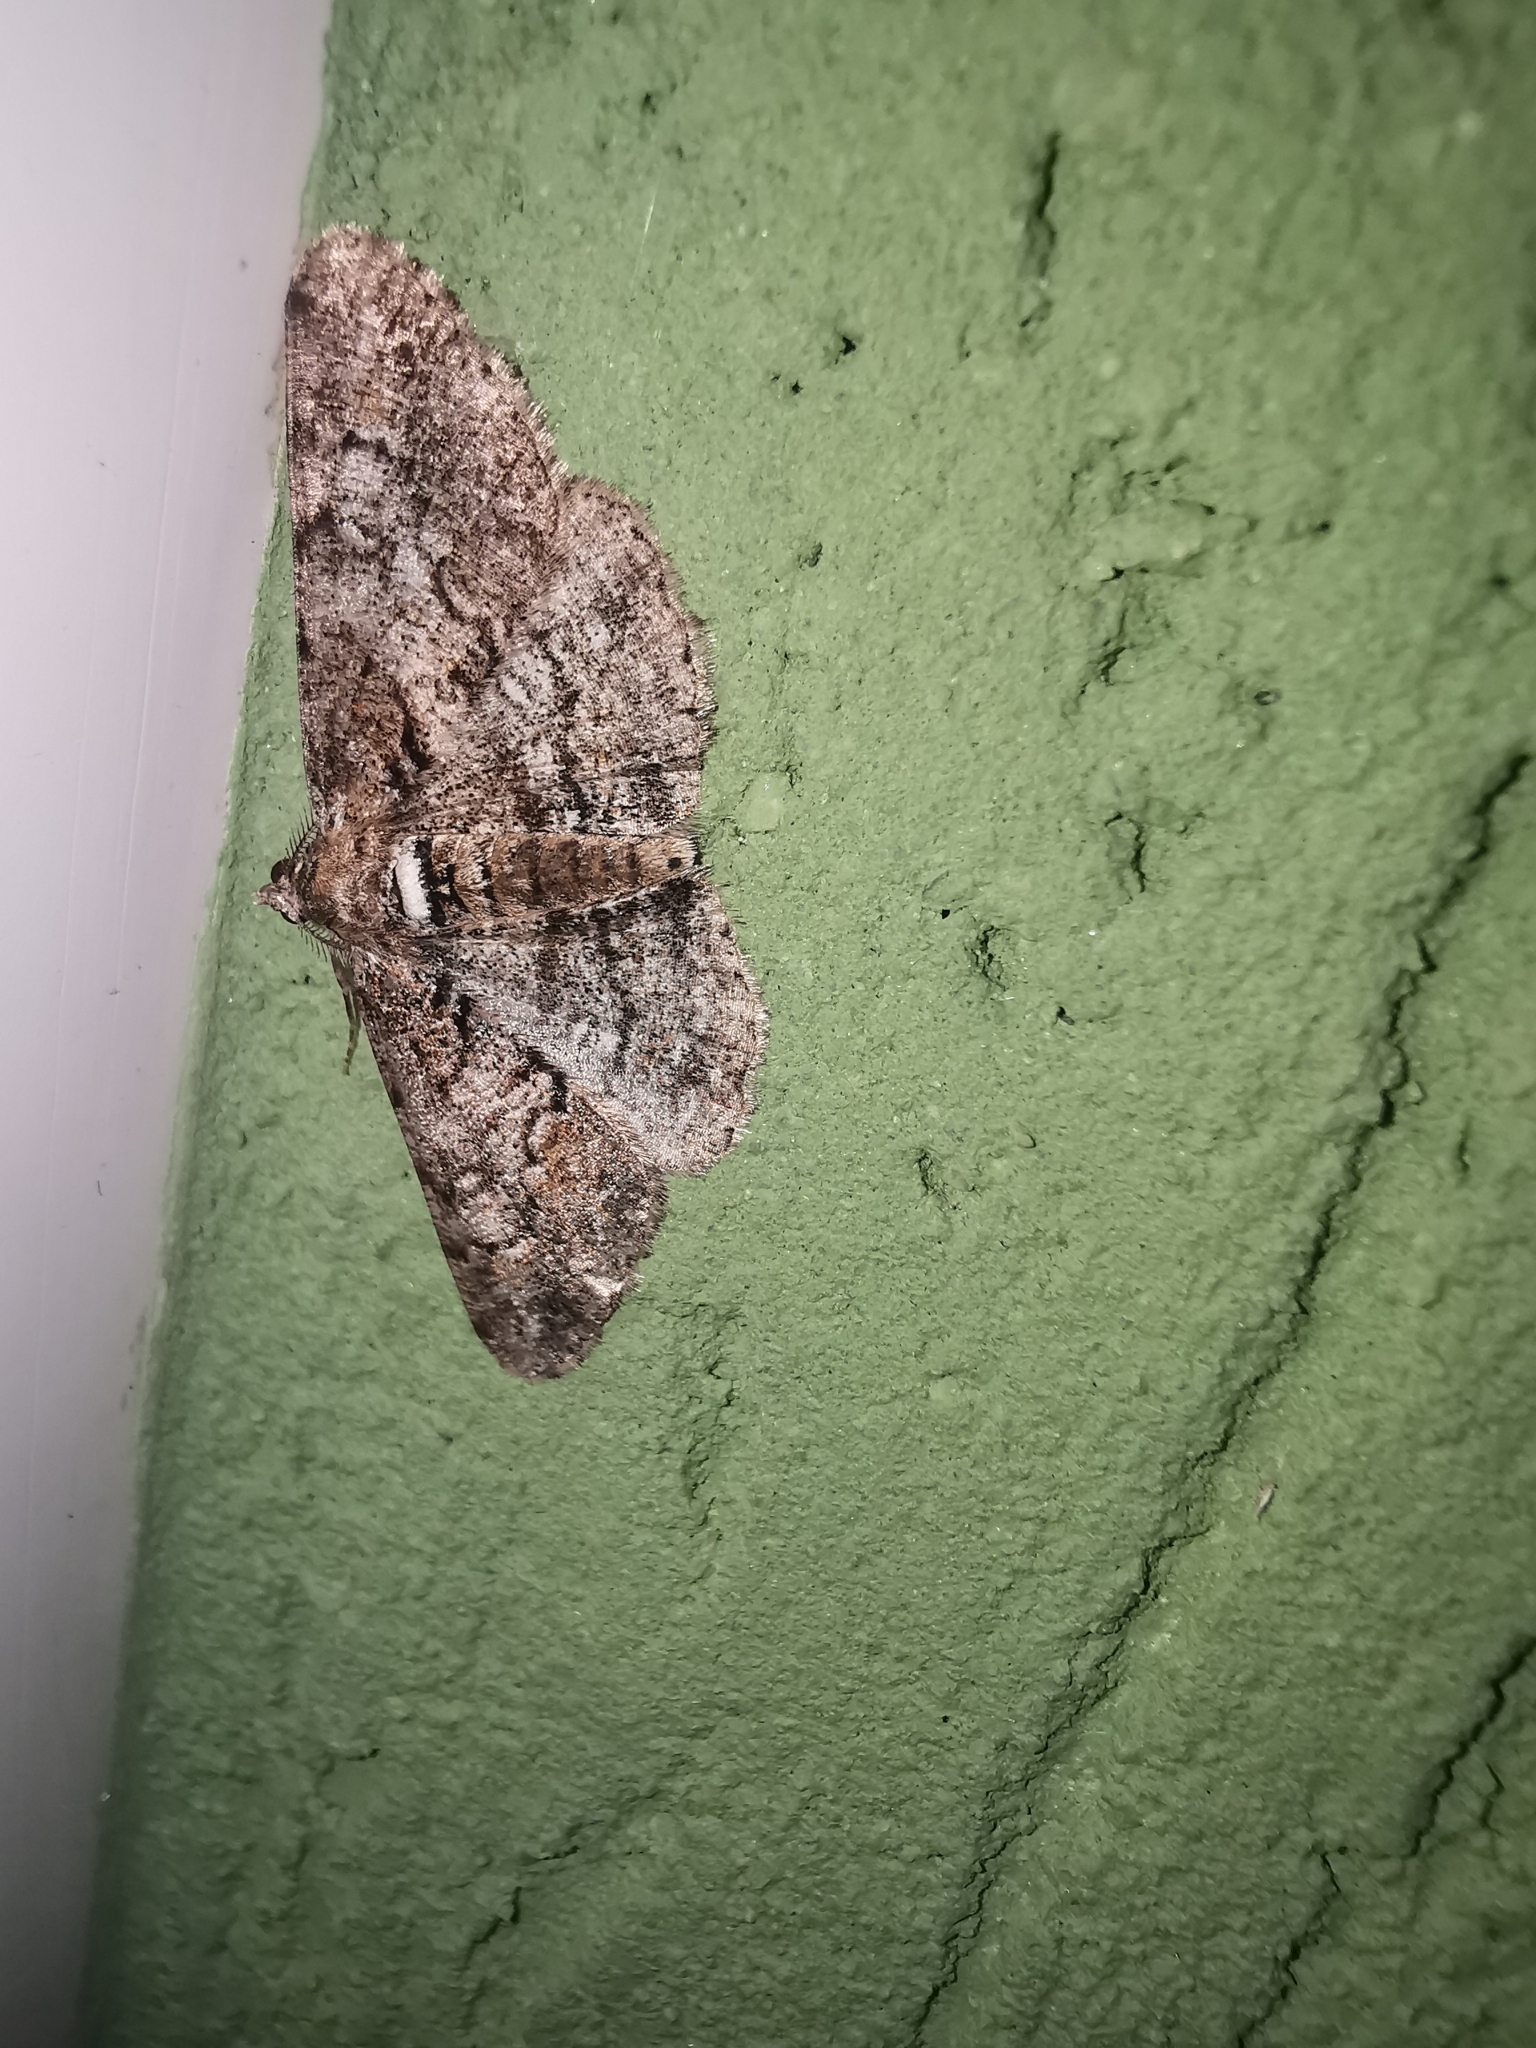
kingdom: Animalia
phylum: Arthropoda
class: Insecta
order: Lepidoptera
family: Geometridae
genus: Cleora
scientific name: Cleora cinctaria
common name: Ringed carpet
